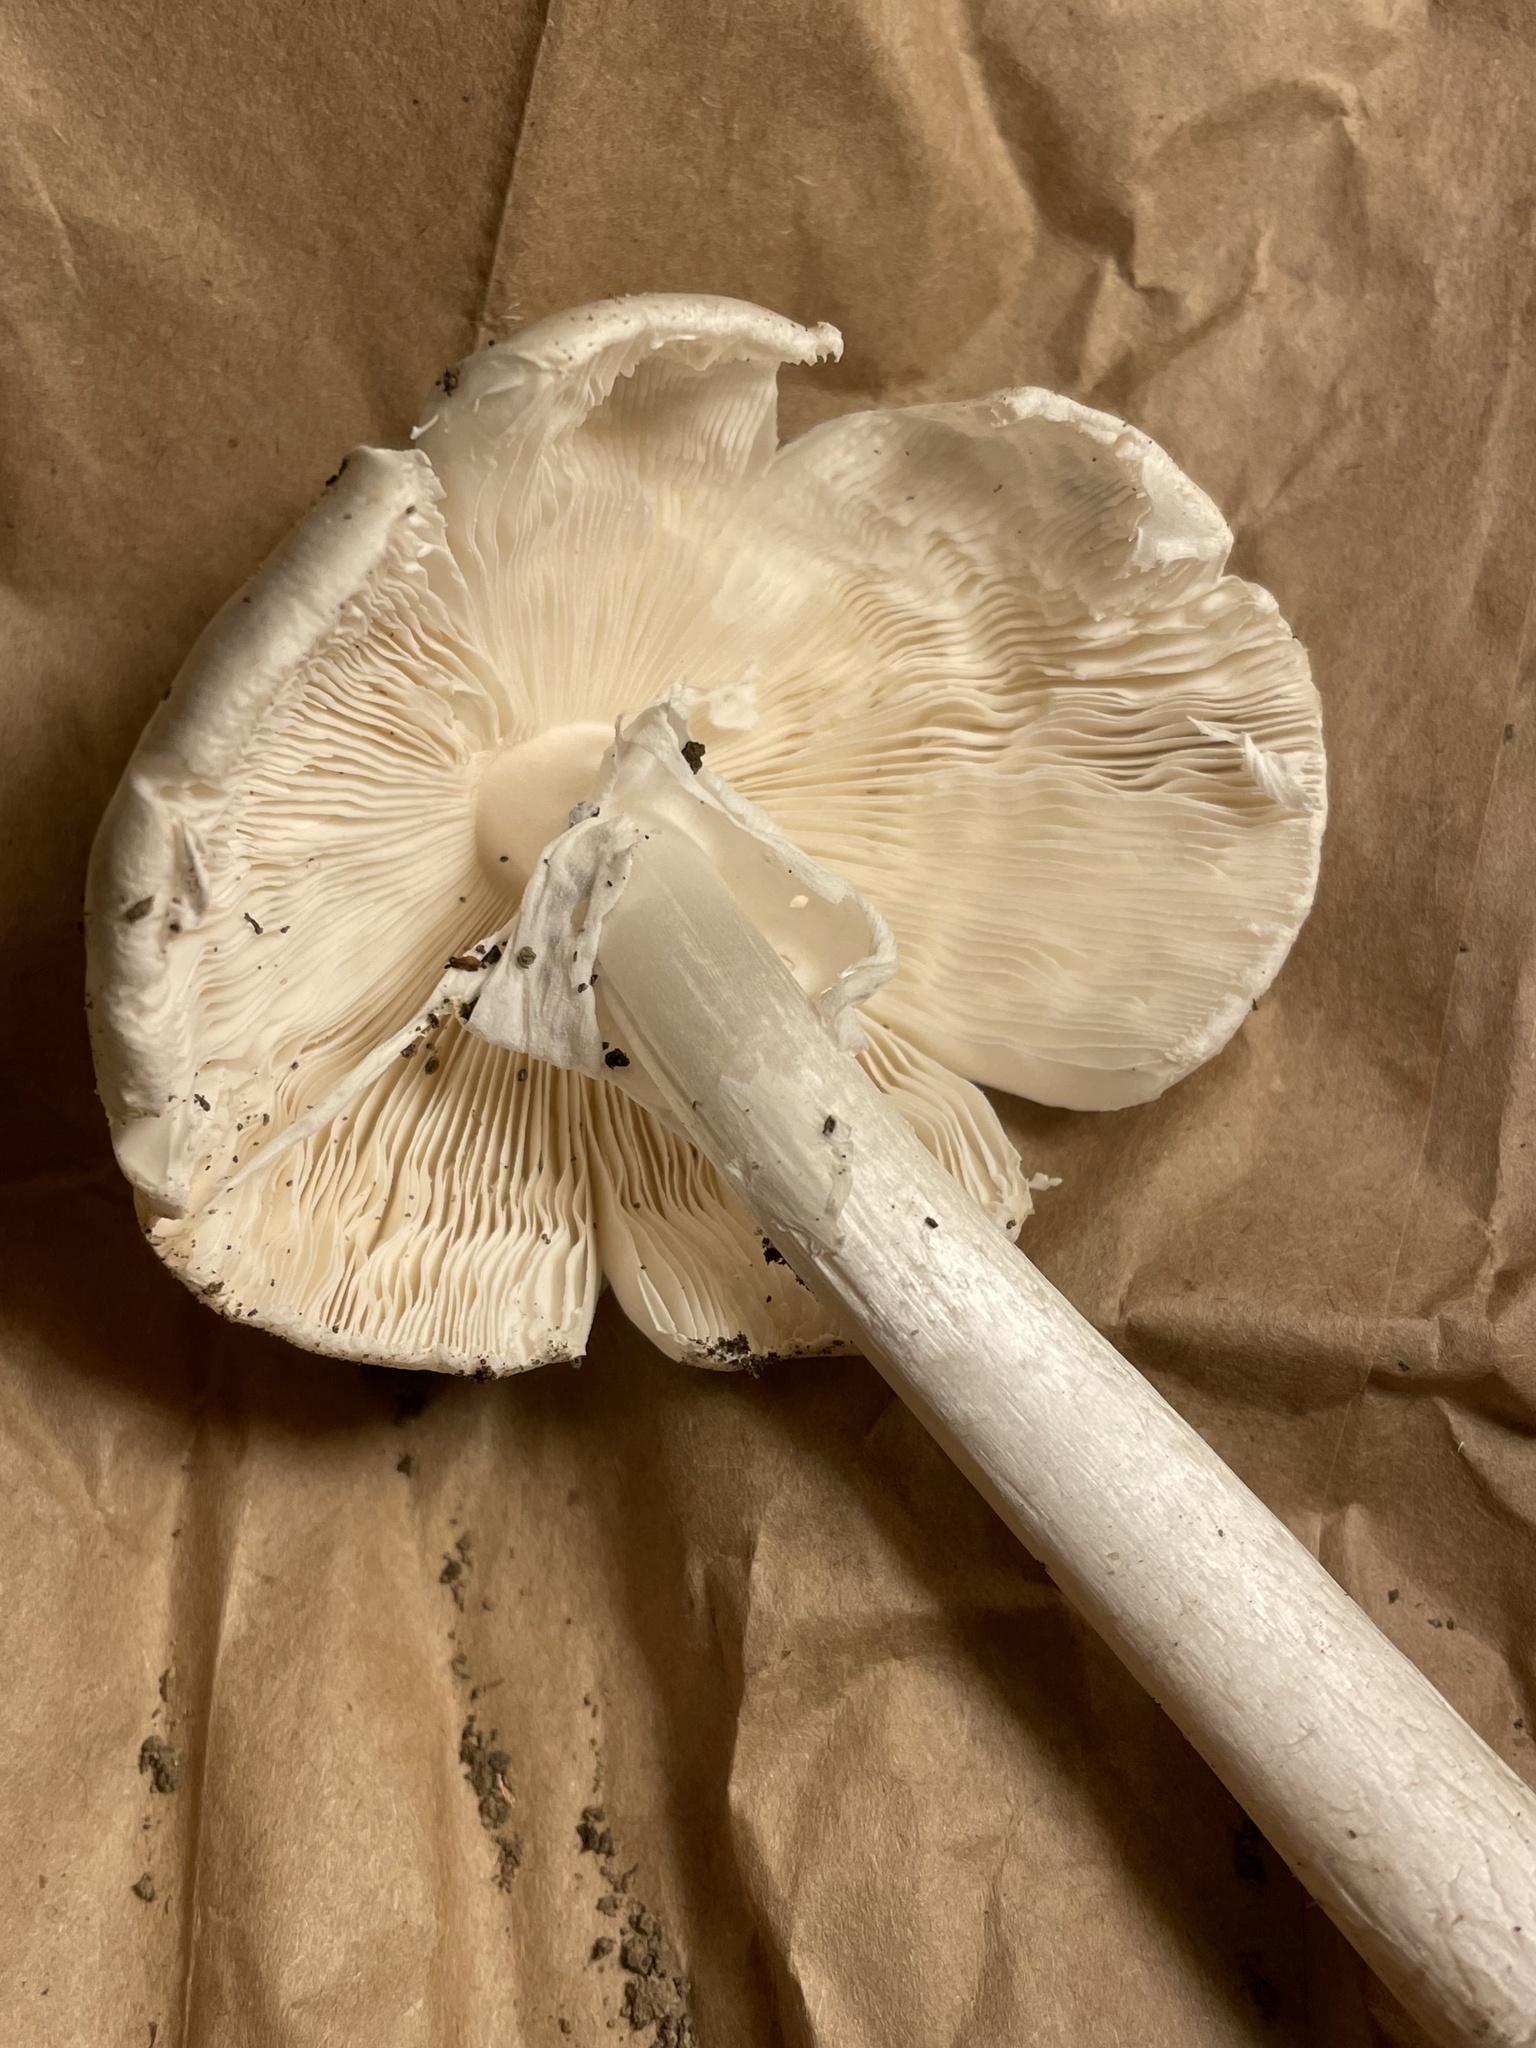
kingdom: Fungi
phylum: Basidiomycota
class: Agaricomycetes
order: Agaricales
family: Amanitaceae
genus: Amanita
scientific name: Amanita bisporigera
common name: Eastern north american destroying angel
